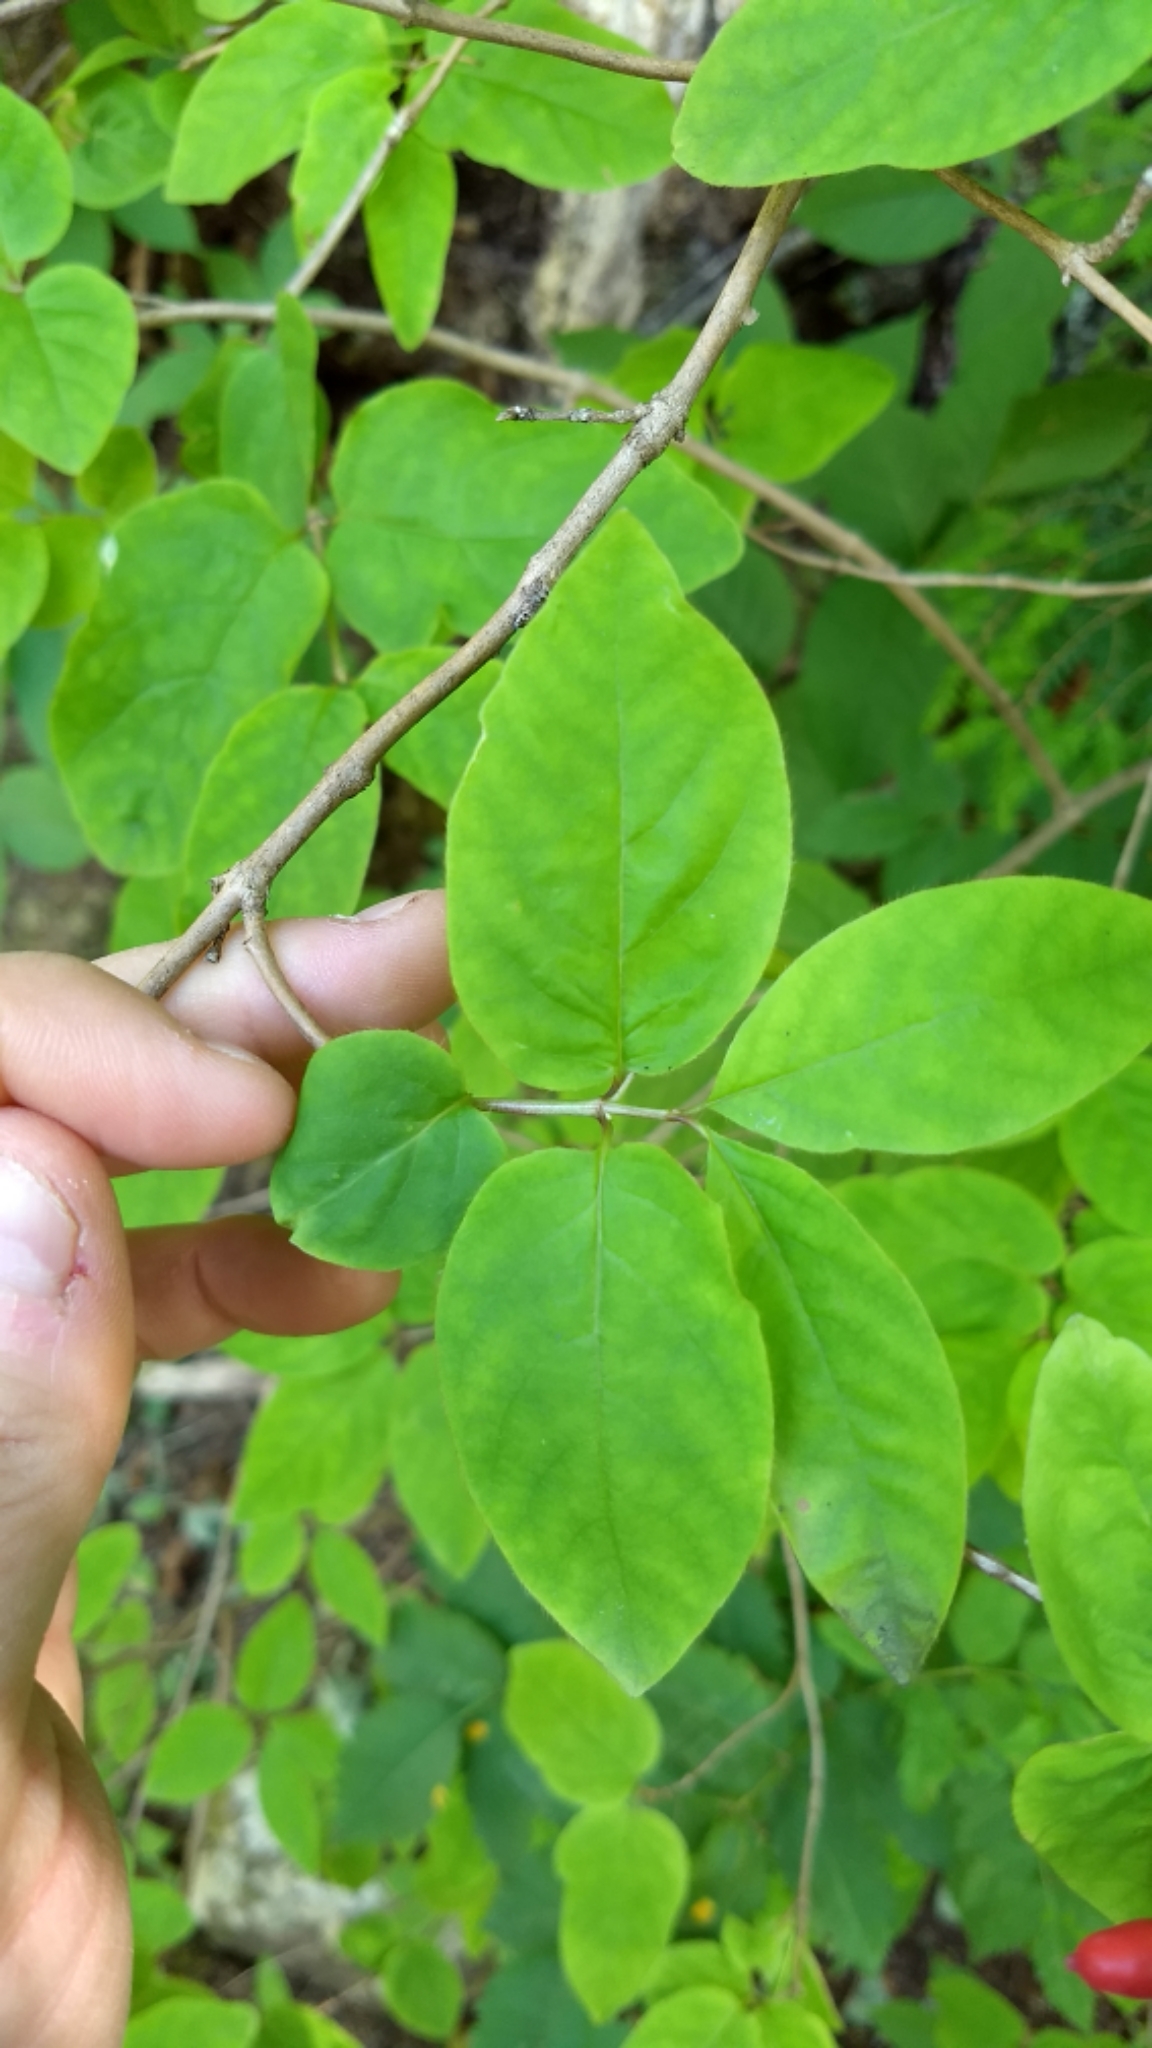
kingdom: Plantae
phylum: Tracheophyta
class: Magnoliopsida
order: Dipsacales
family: Caprifoliaceae
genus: Lonicera
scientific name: Lonicera canadensis
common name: American fly-honeysuckle
